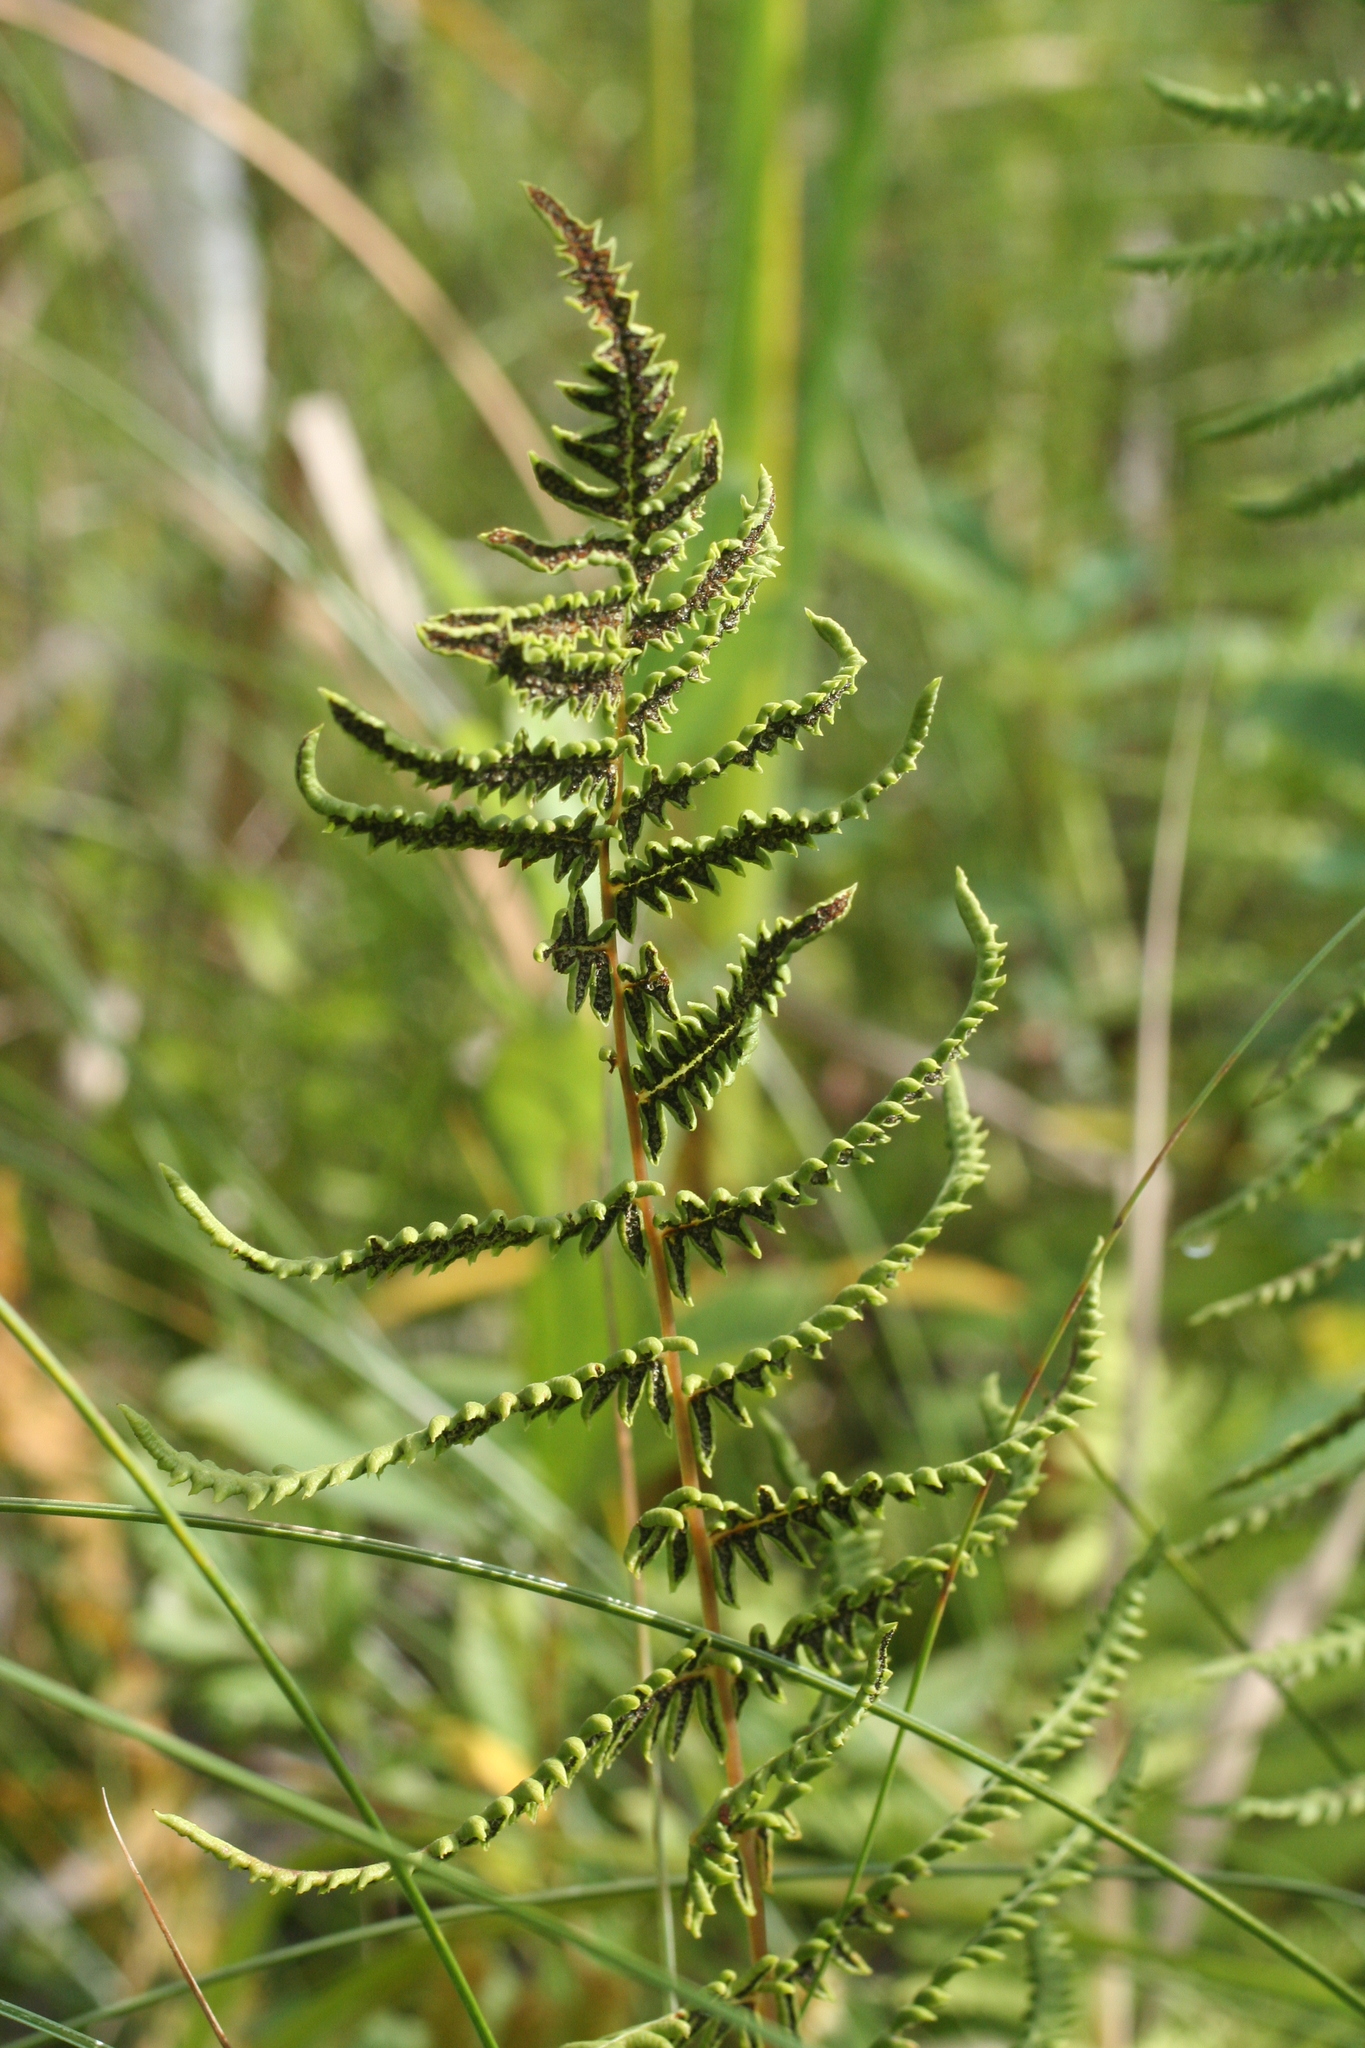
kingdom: Plantae
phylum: Tracheophyta
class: Polypodiopsida
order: Polypodiales
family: Thelypteridaceae
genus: Thelypteris
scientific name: Thelypteris palustris
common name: Marsh fern
